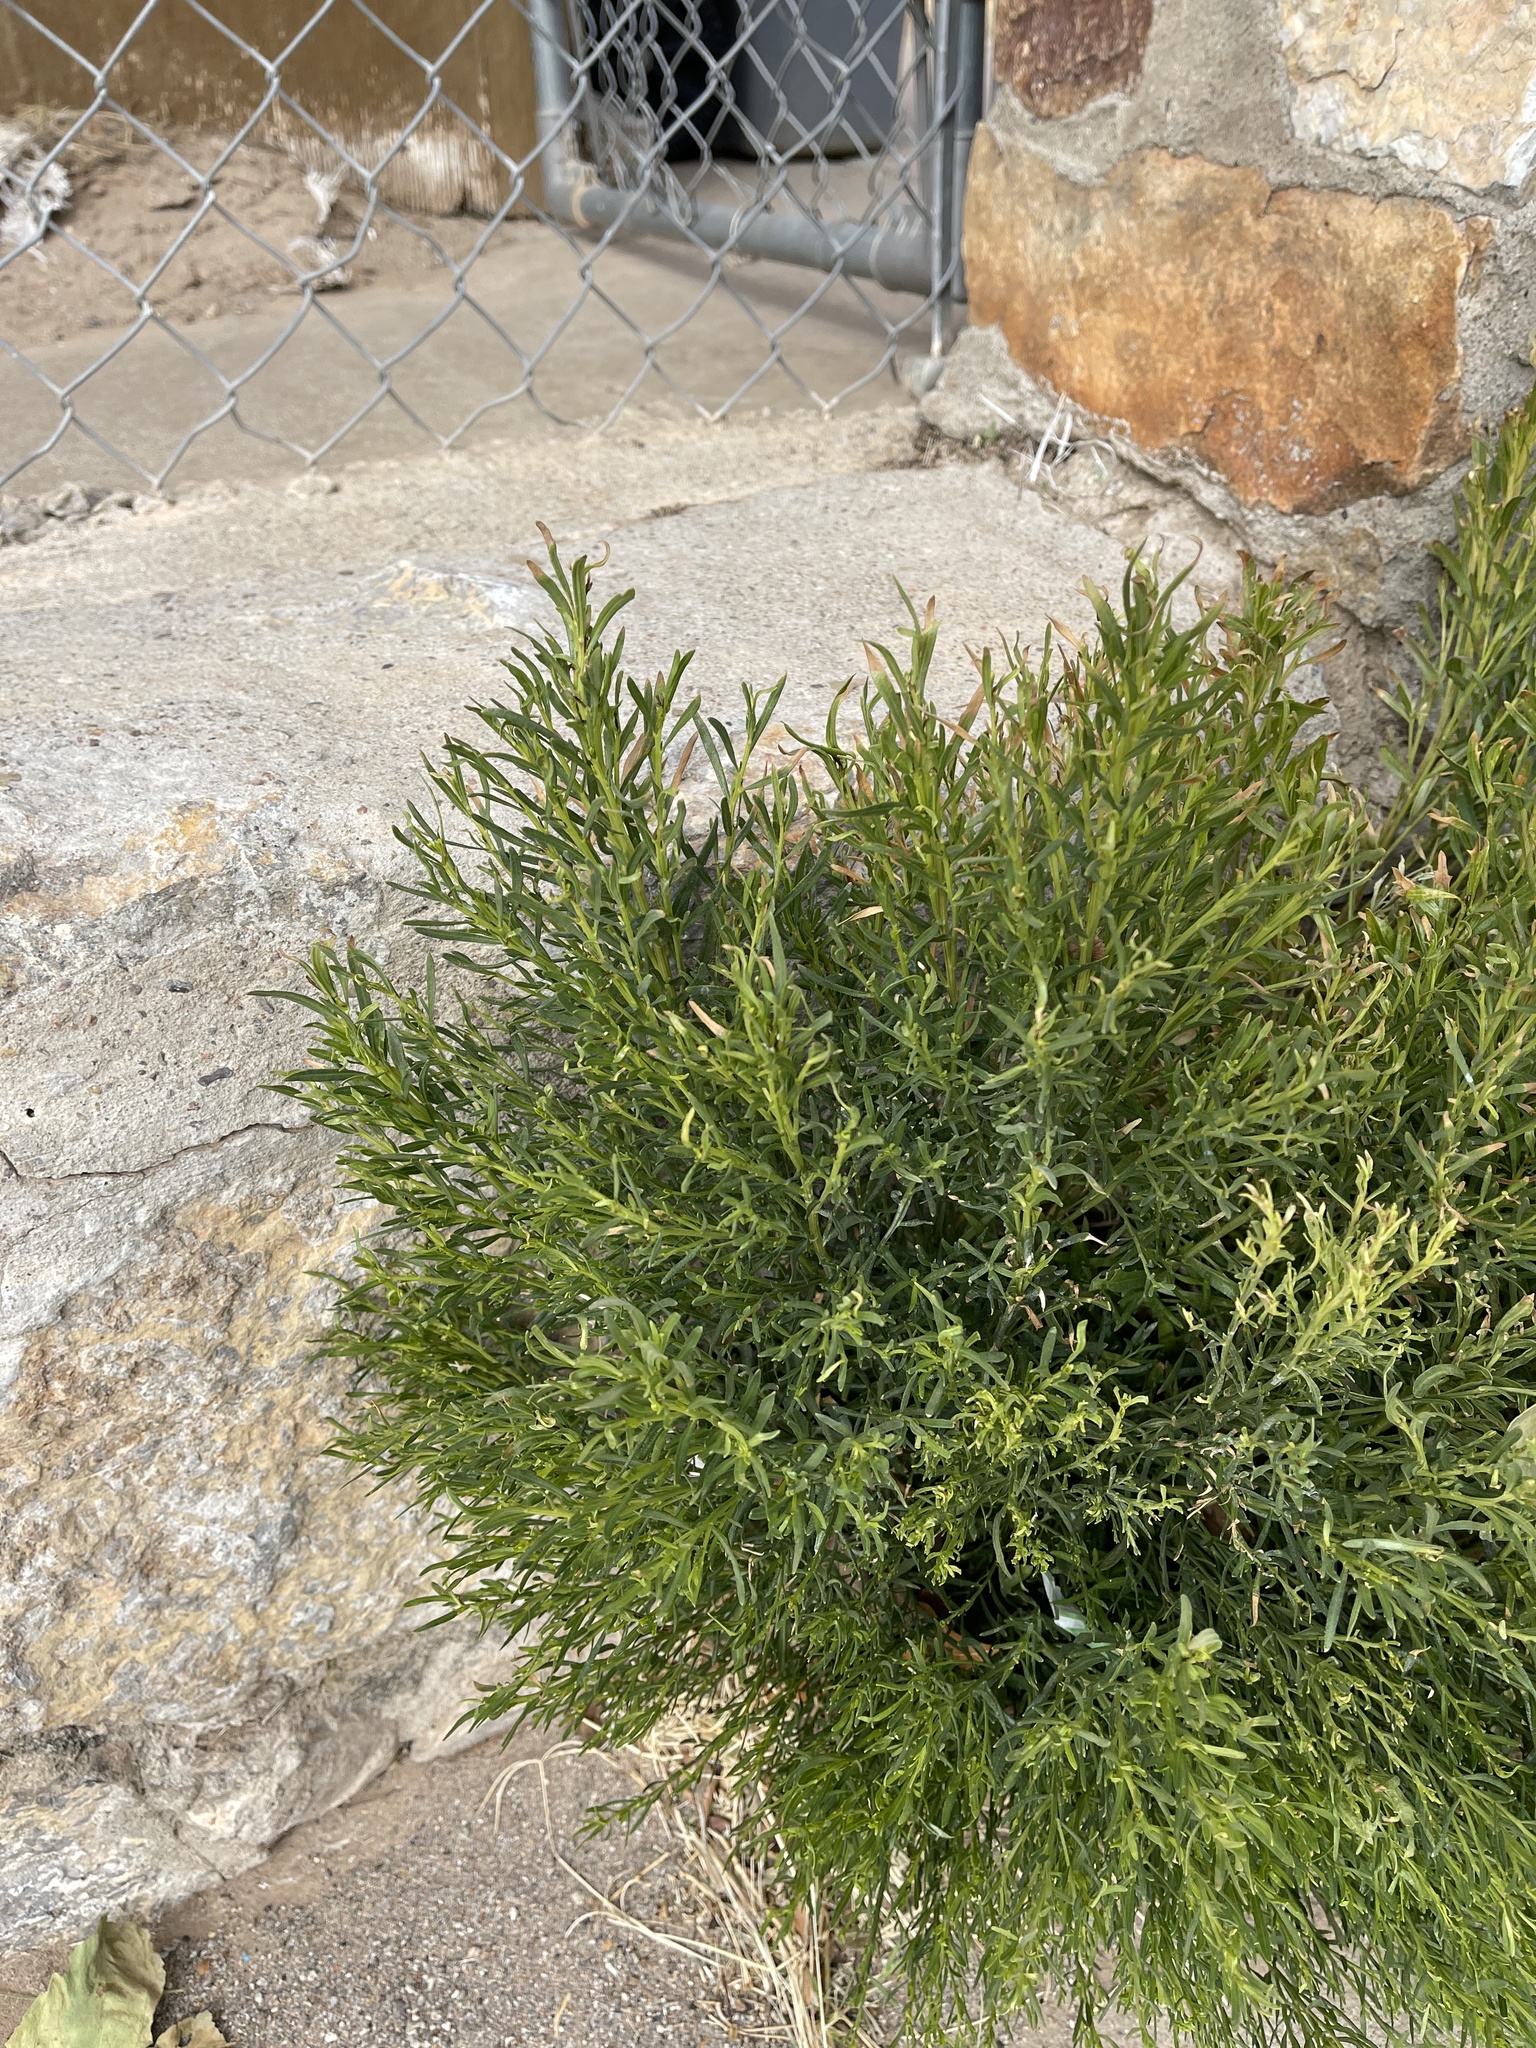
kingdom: Plantae
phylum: Tracheophyta
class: Magnoliopsida
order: Asterales
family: Asteraceae
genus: Baccharis
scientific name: Baccharis sarothroides
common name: Desert-broom
